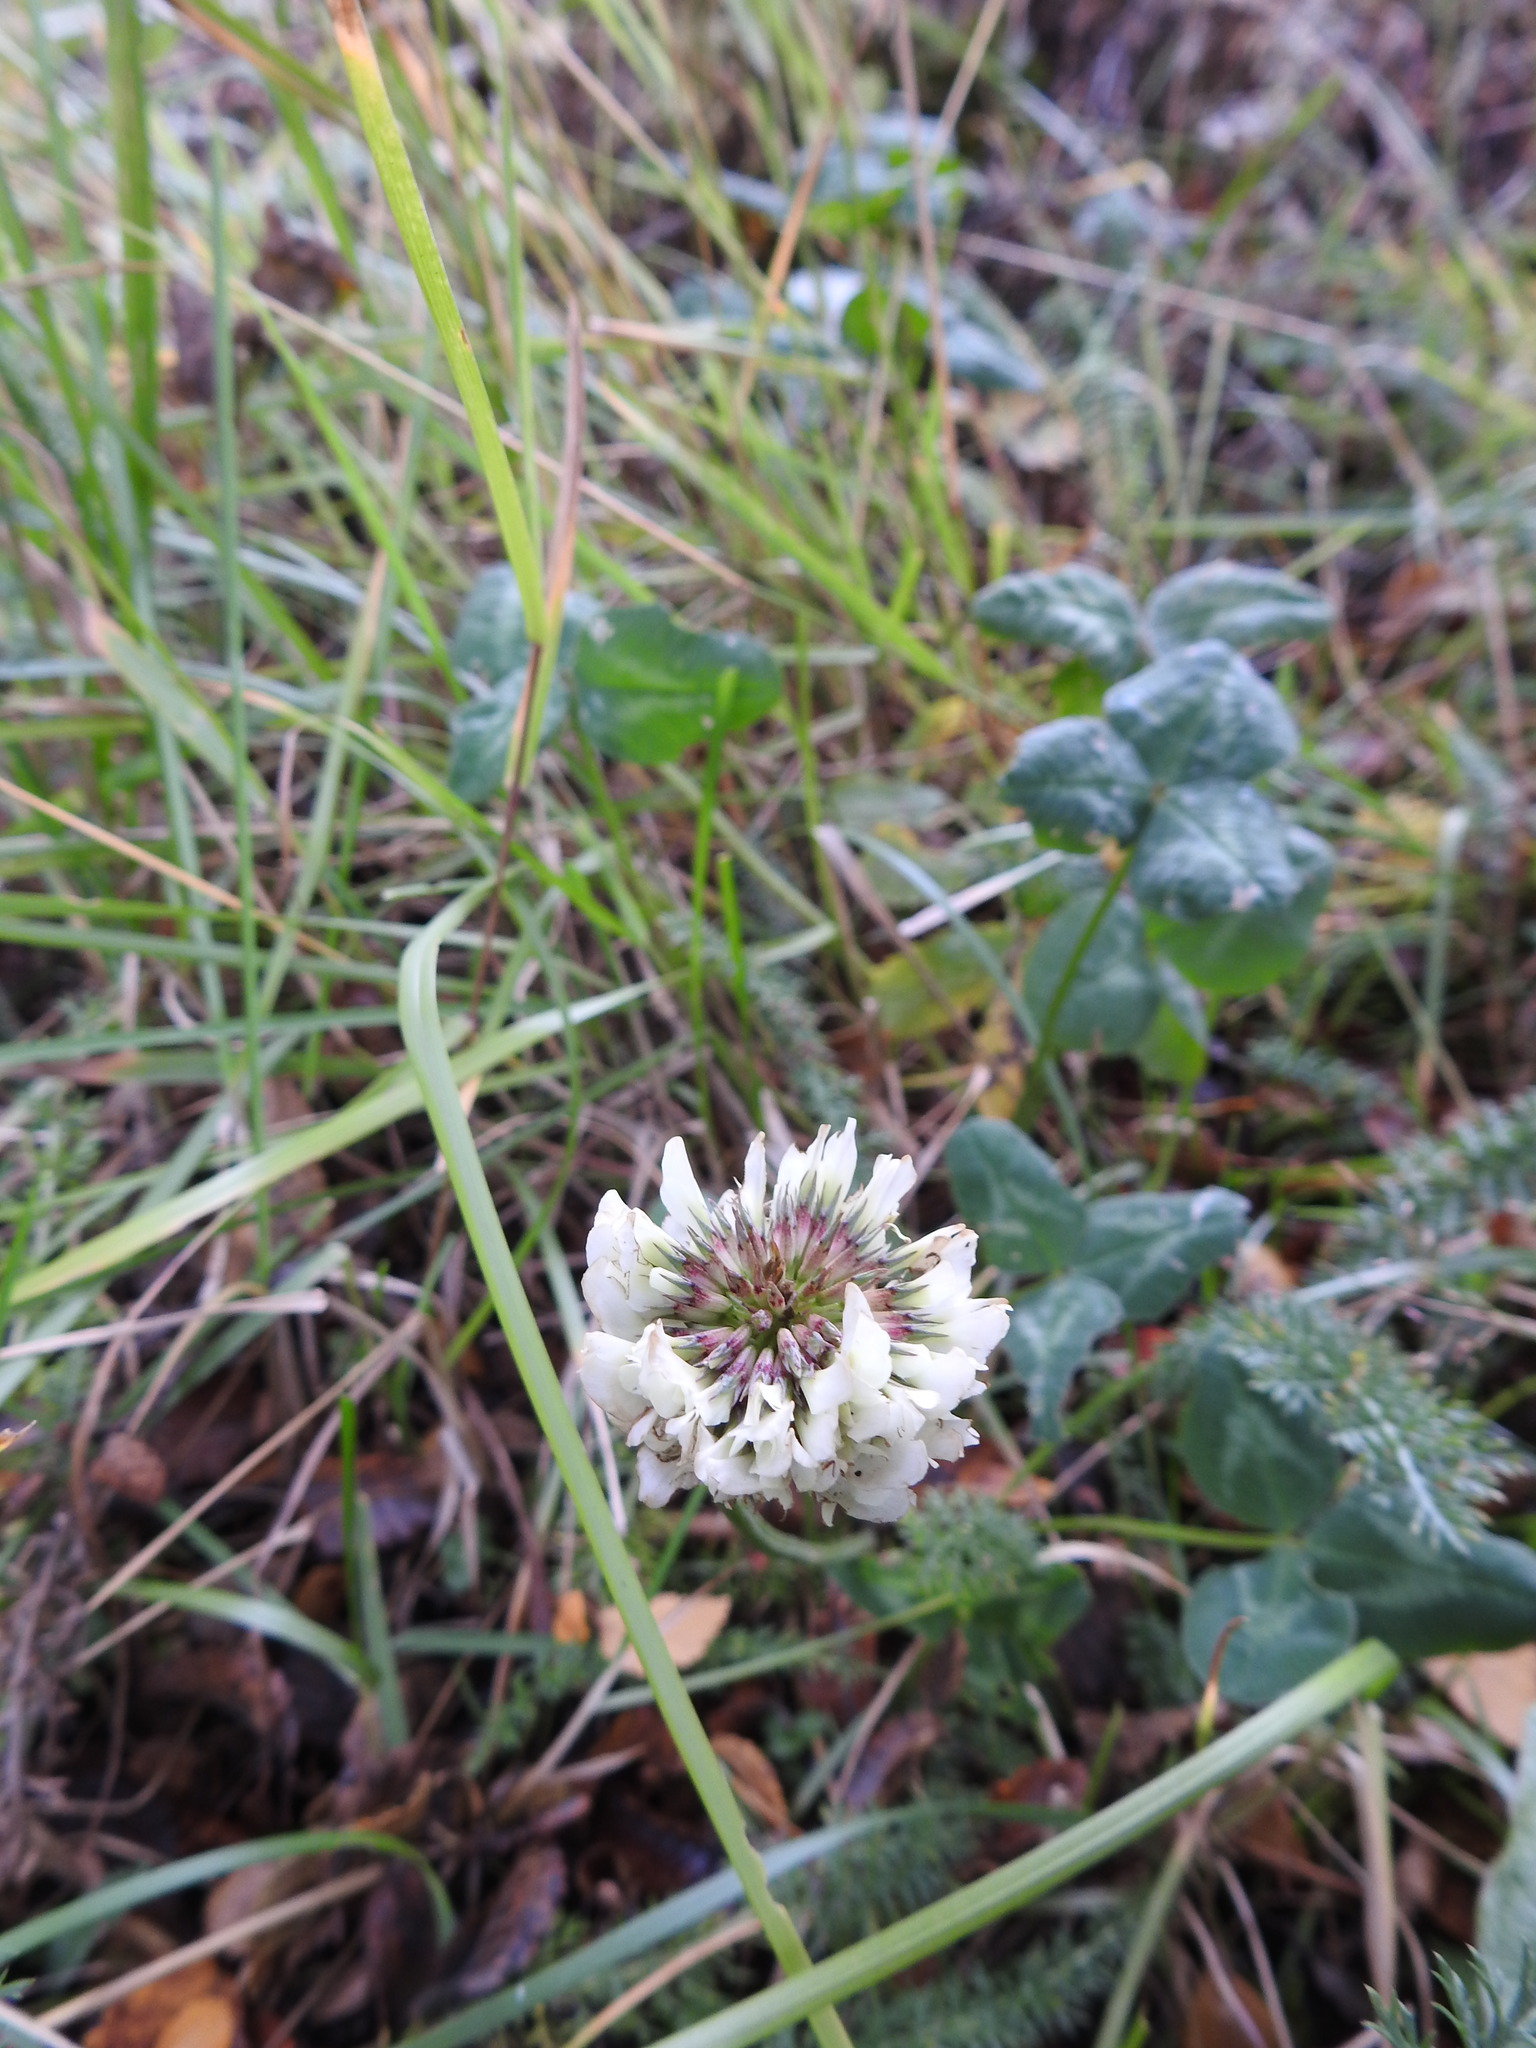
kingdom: Plantae
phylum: Tracheophyta
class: Magnoliopsida
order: Fabales
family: Fabaceae
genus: Trifolium
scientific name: Trifolium repens
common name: White clover
